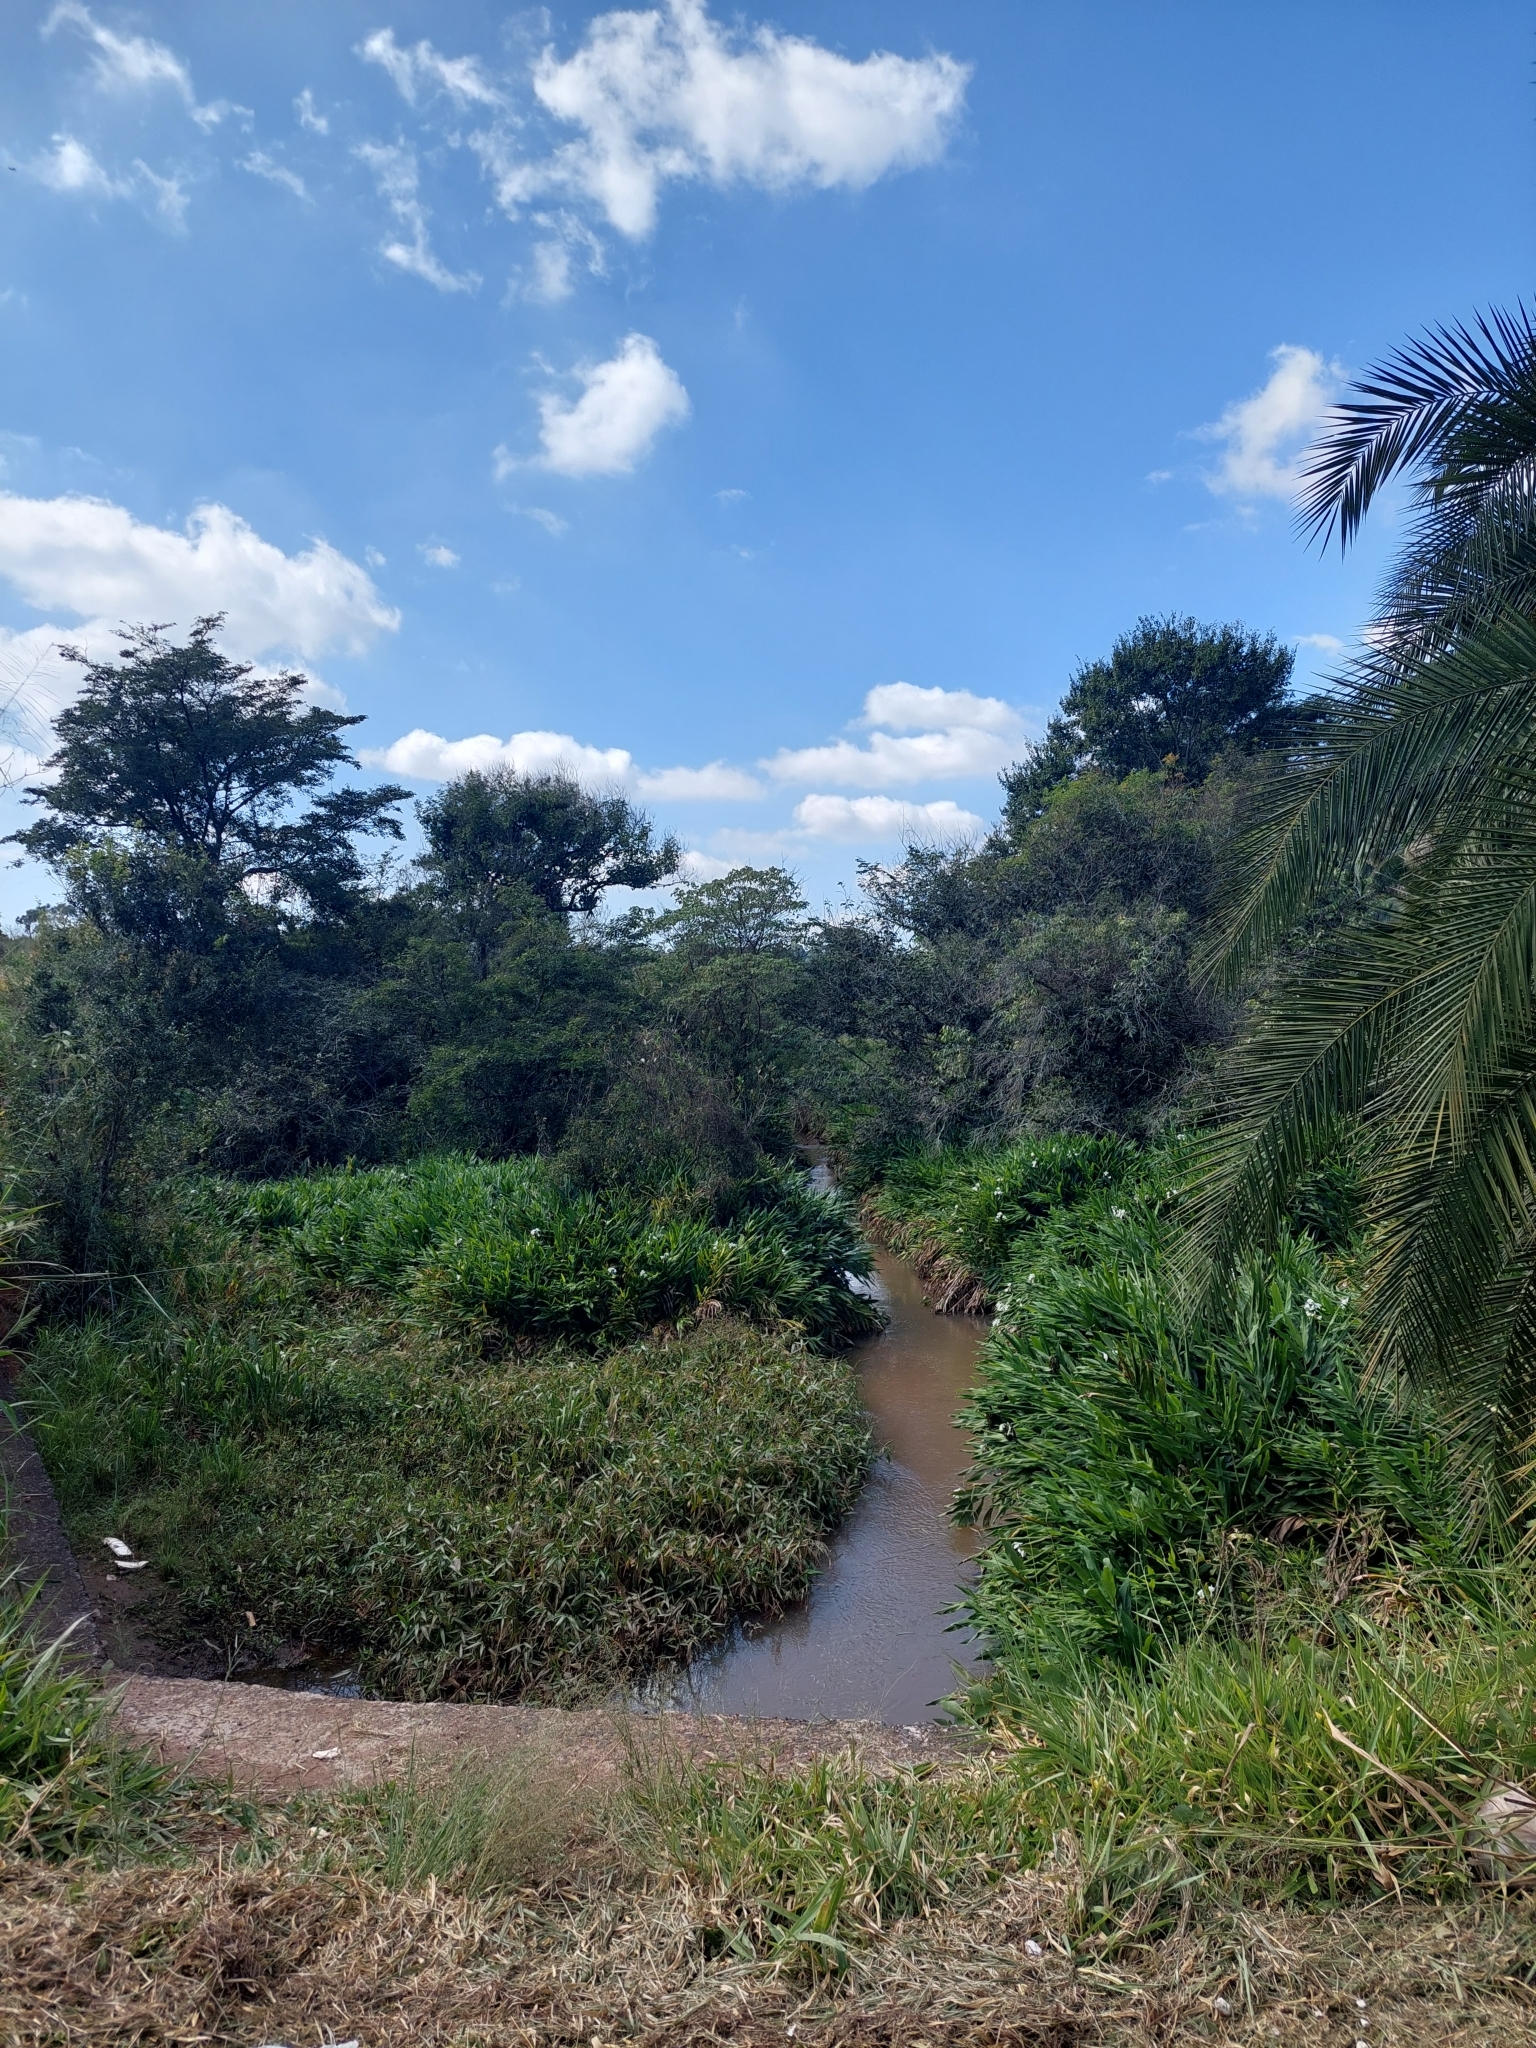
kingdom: Plantae
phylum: Tracheophyta
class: Liliopsida
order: Zingiberales
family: Zingiberaceae
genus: Hedychium
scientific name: Hedychium coronarium
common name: White garland-lily
